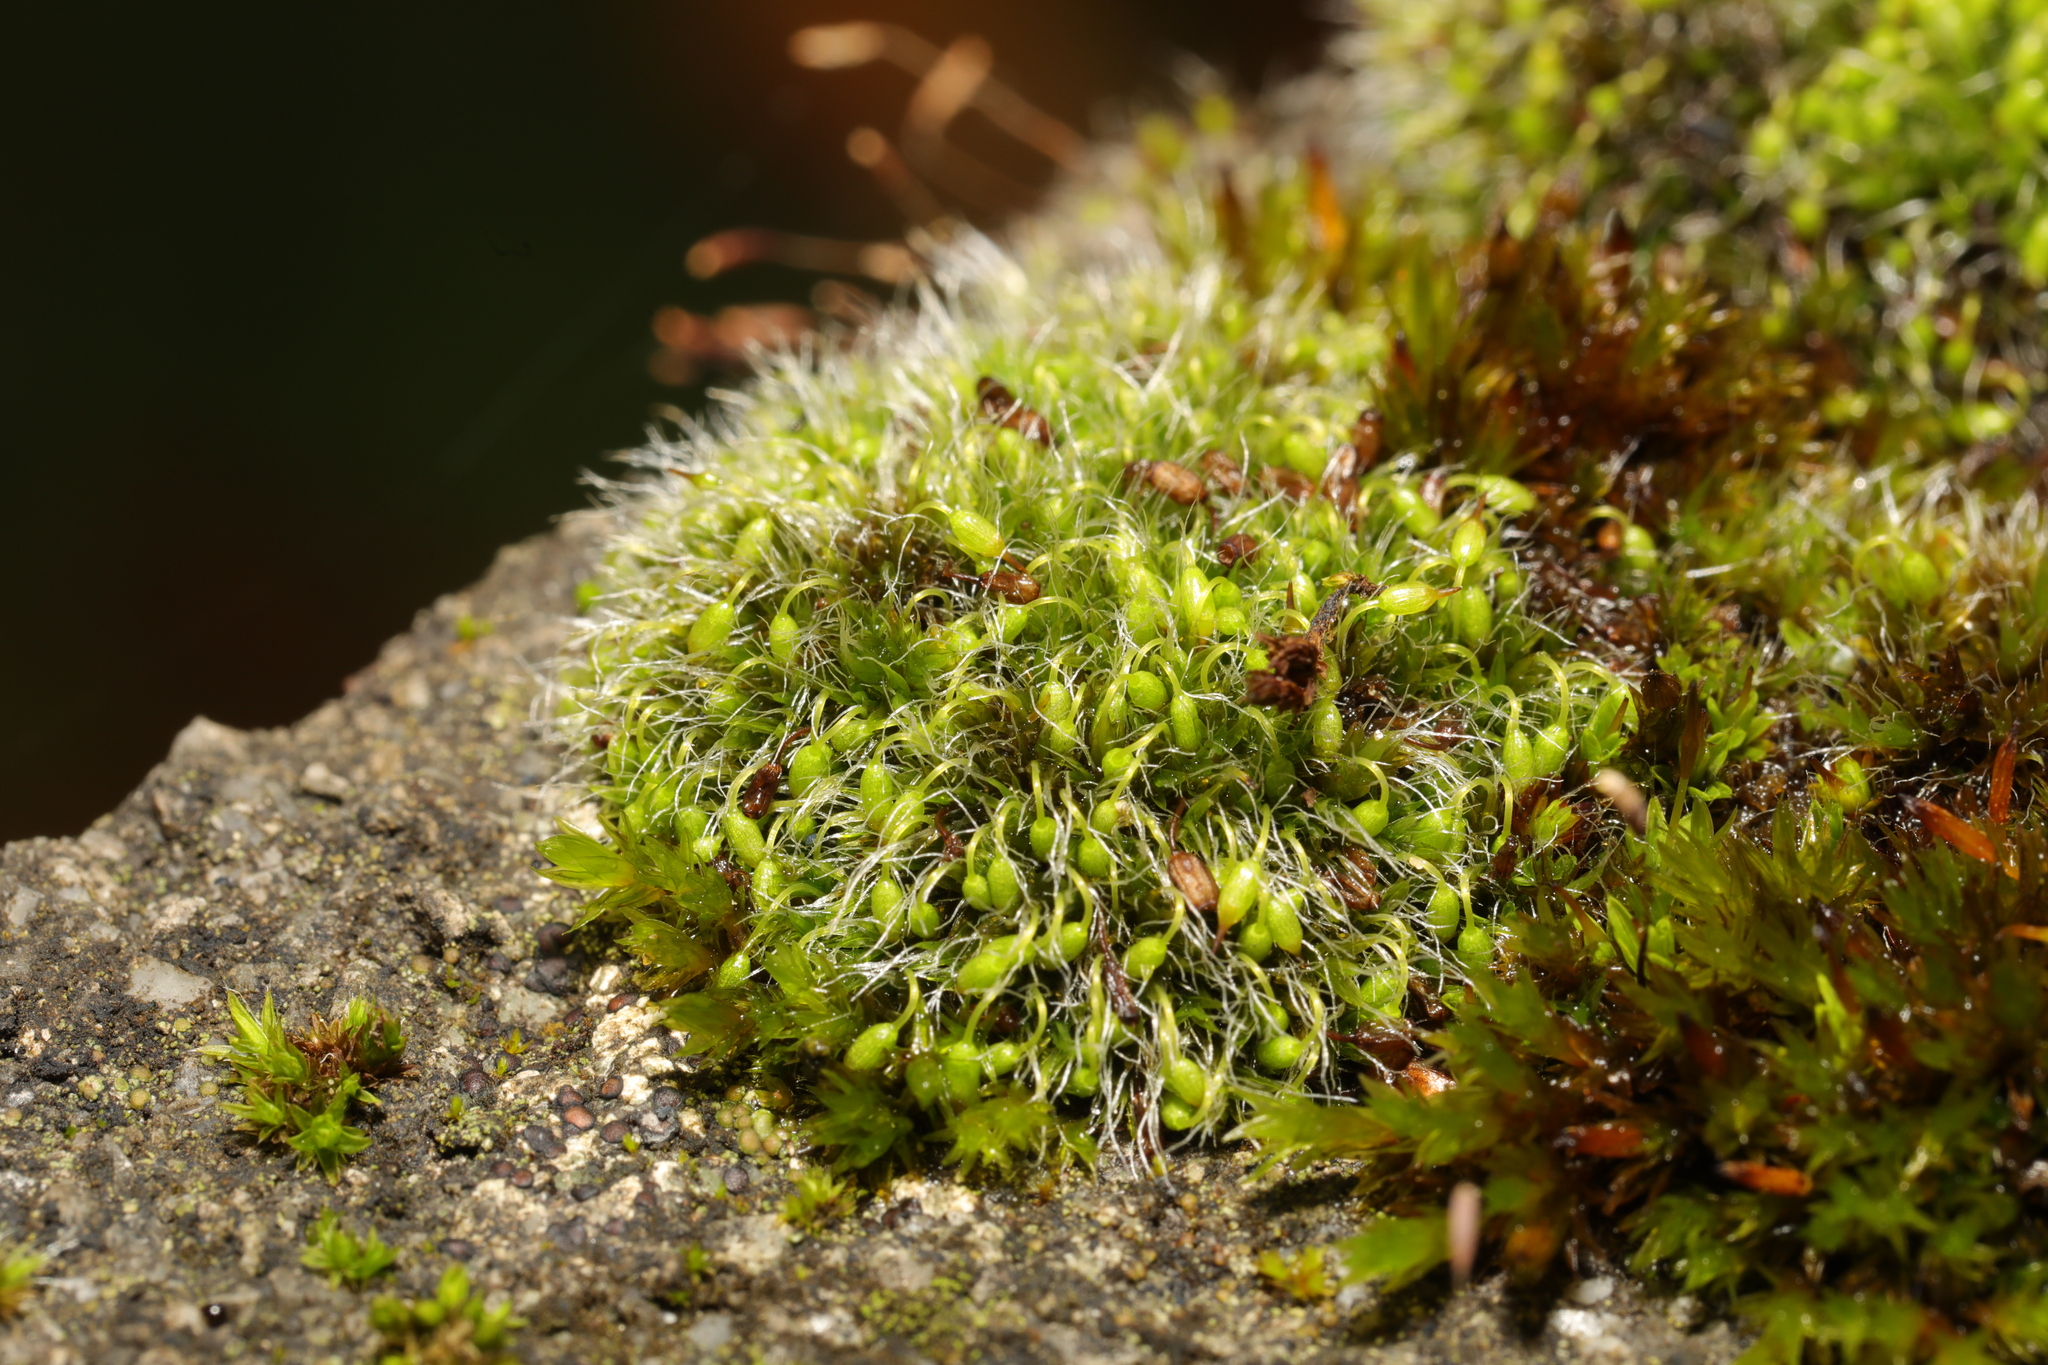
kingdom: Plantae
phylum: Bryophyta
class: Bryopsida
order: Grimmiales
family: Grimmiaceae
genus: Grimmia
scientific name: Grimmia pulvinata
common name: Grey-cushioned grimmia
